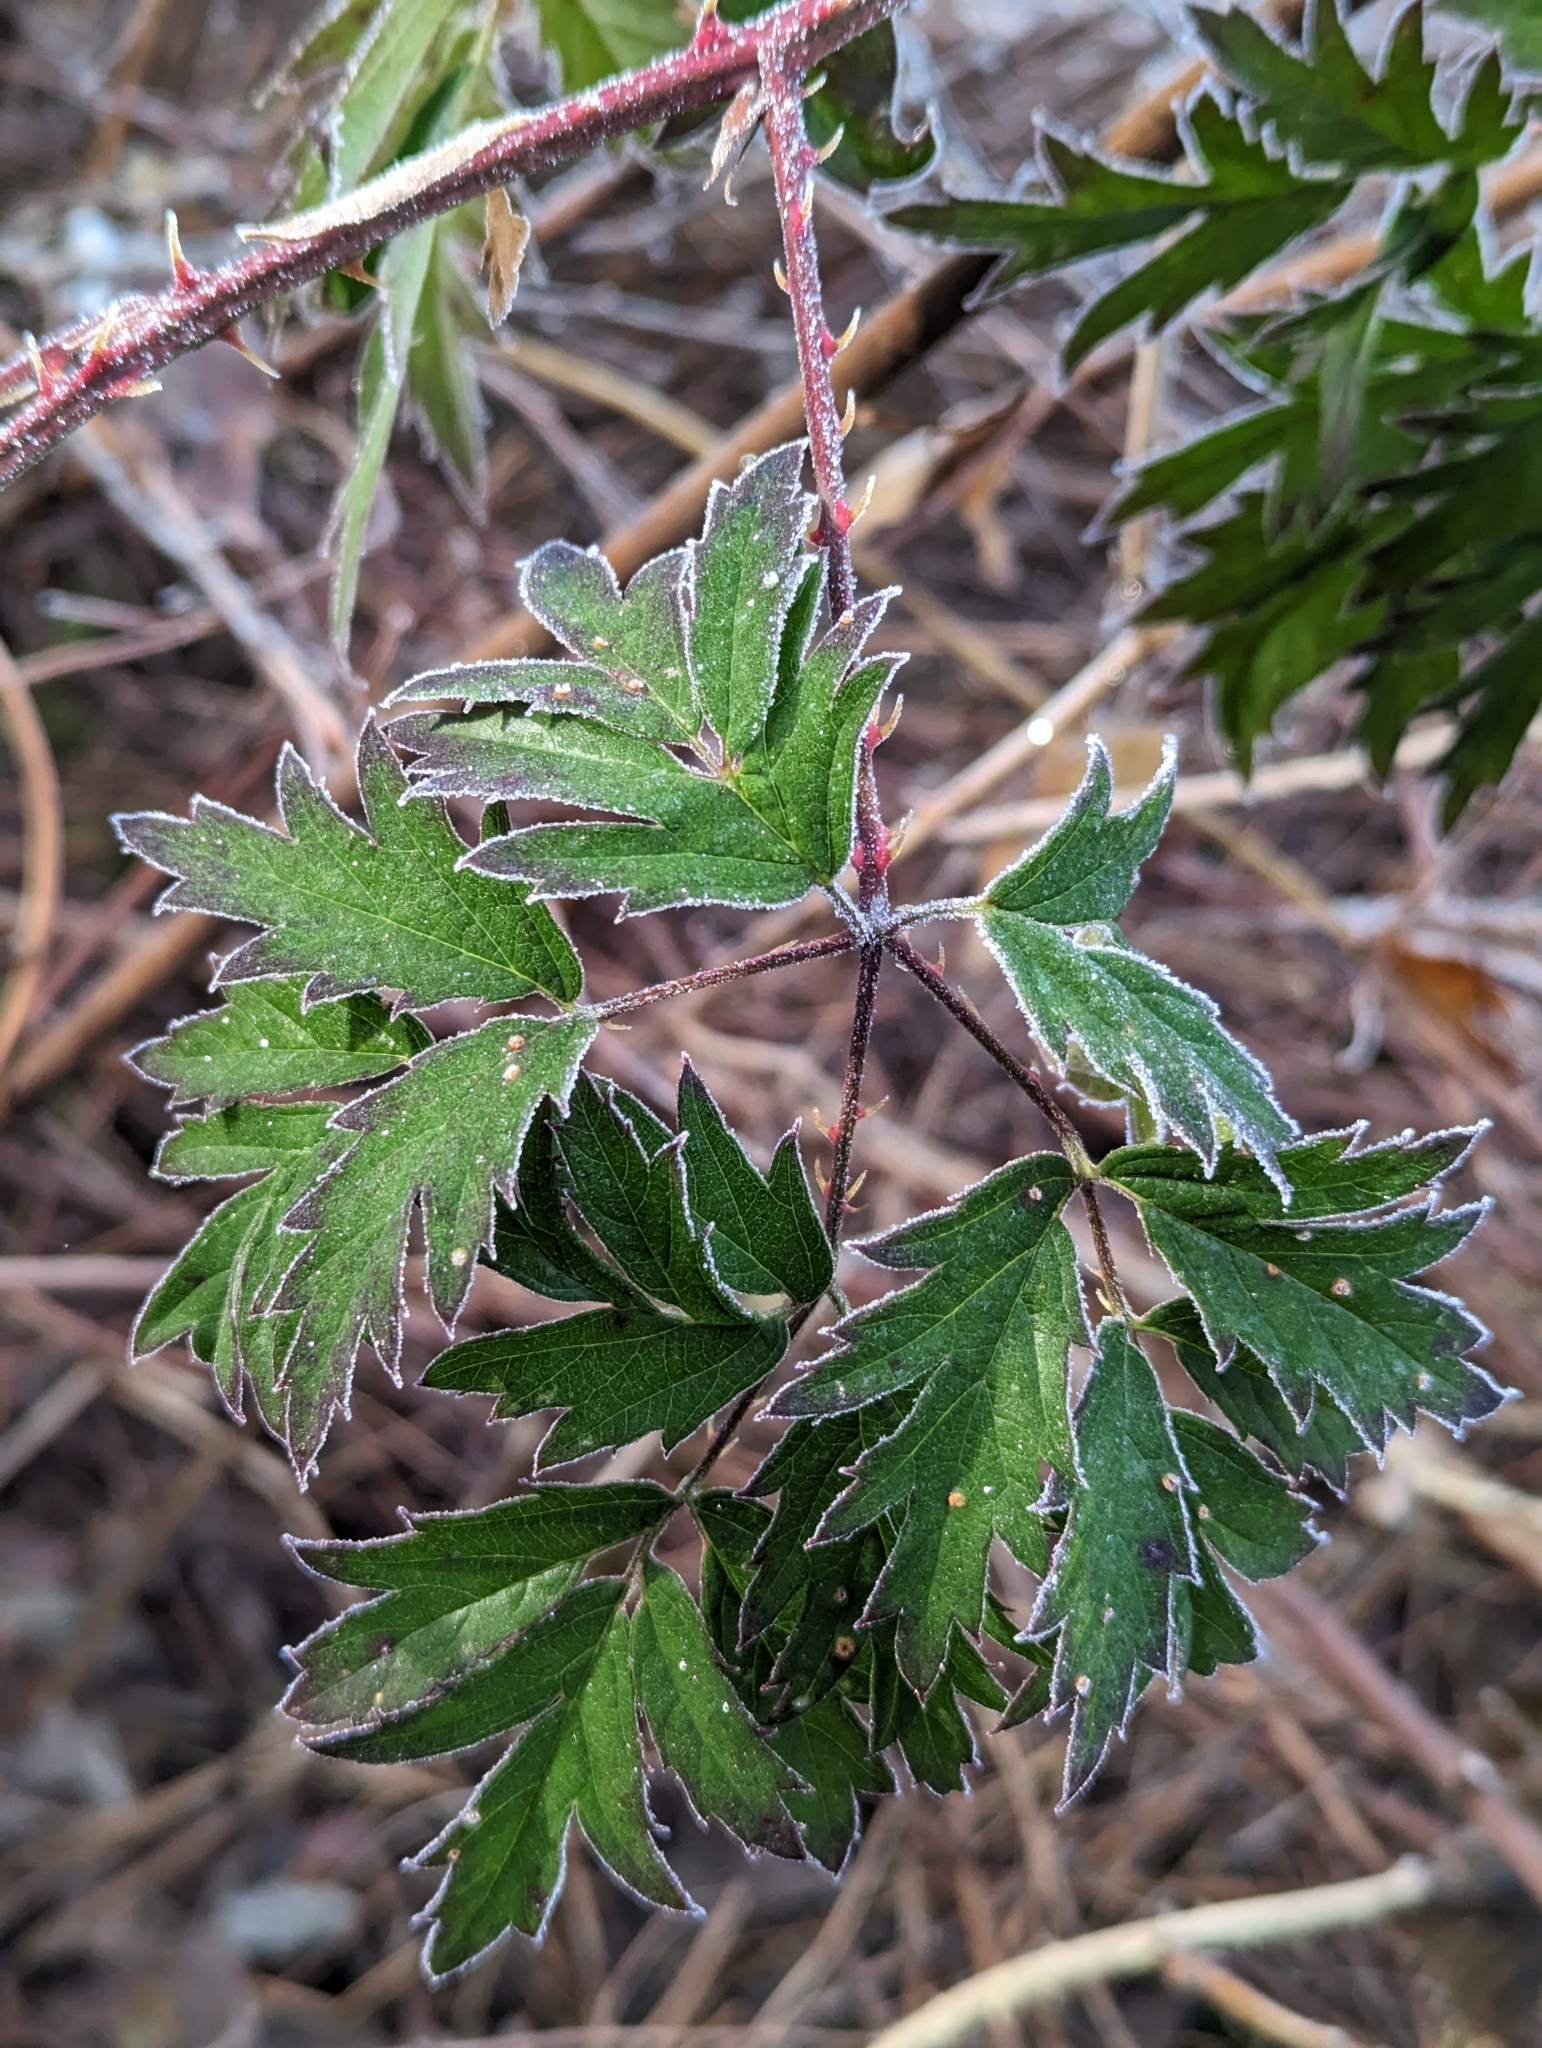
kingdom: Plantae
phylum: Tracheophyta
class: Magnoliopsida
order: Rosales
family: Rosaceae
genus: Rubus
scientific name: Rubus laciniatus
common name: Evergreen blackberry
